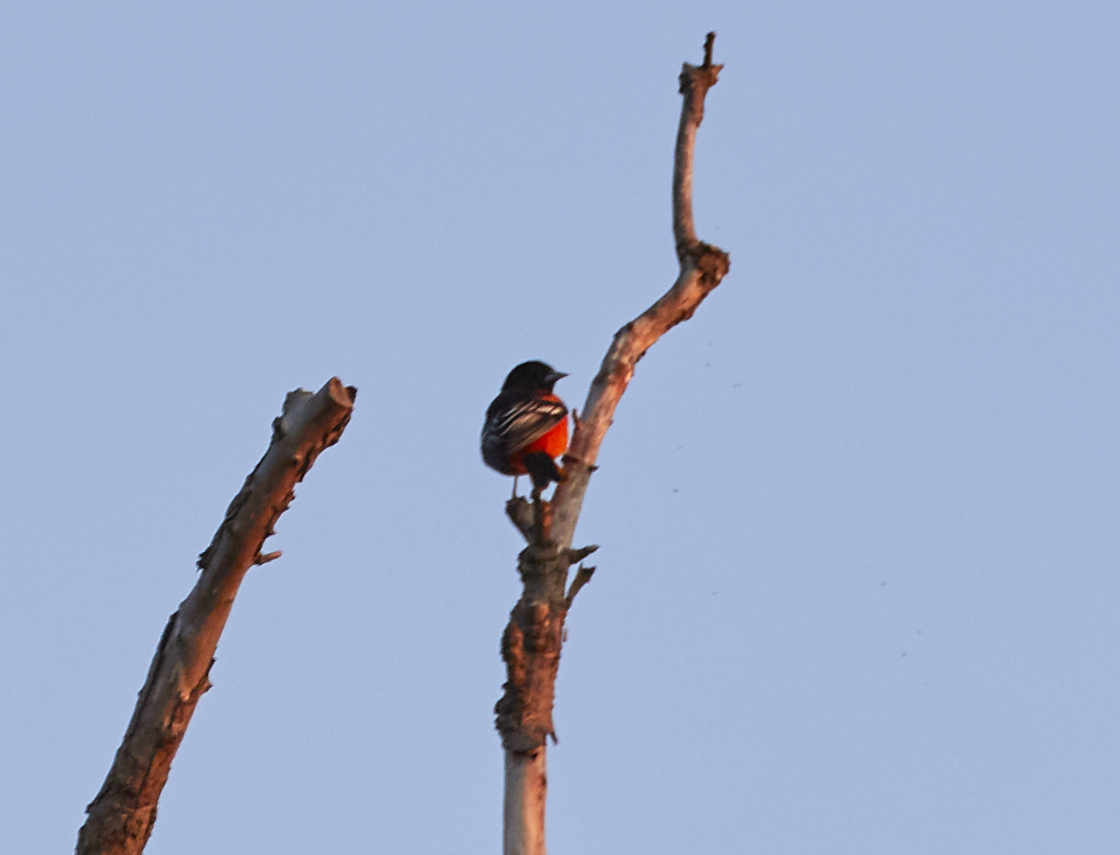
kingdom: Animalia
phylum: Chordata
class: Aves
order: Passeriformes
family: Icteridae
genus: Icterus
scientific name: Icterus galbula
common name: Baltimore oriole
